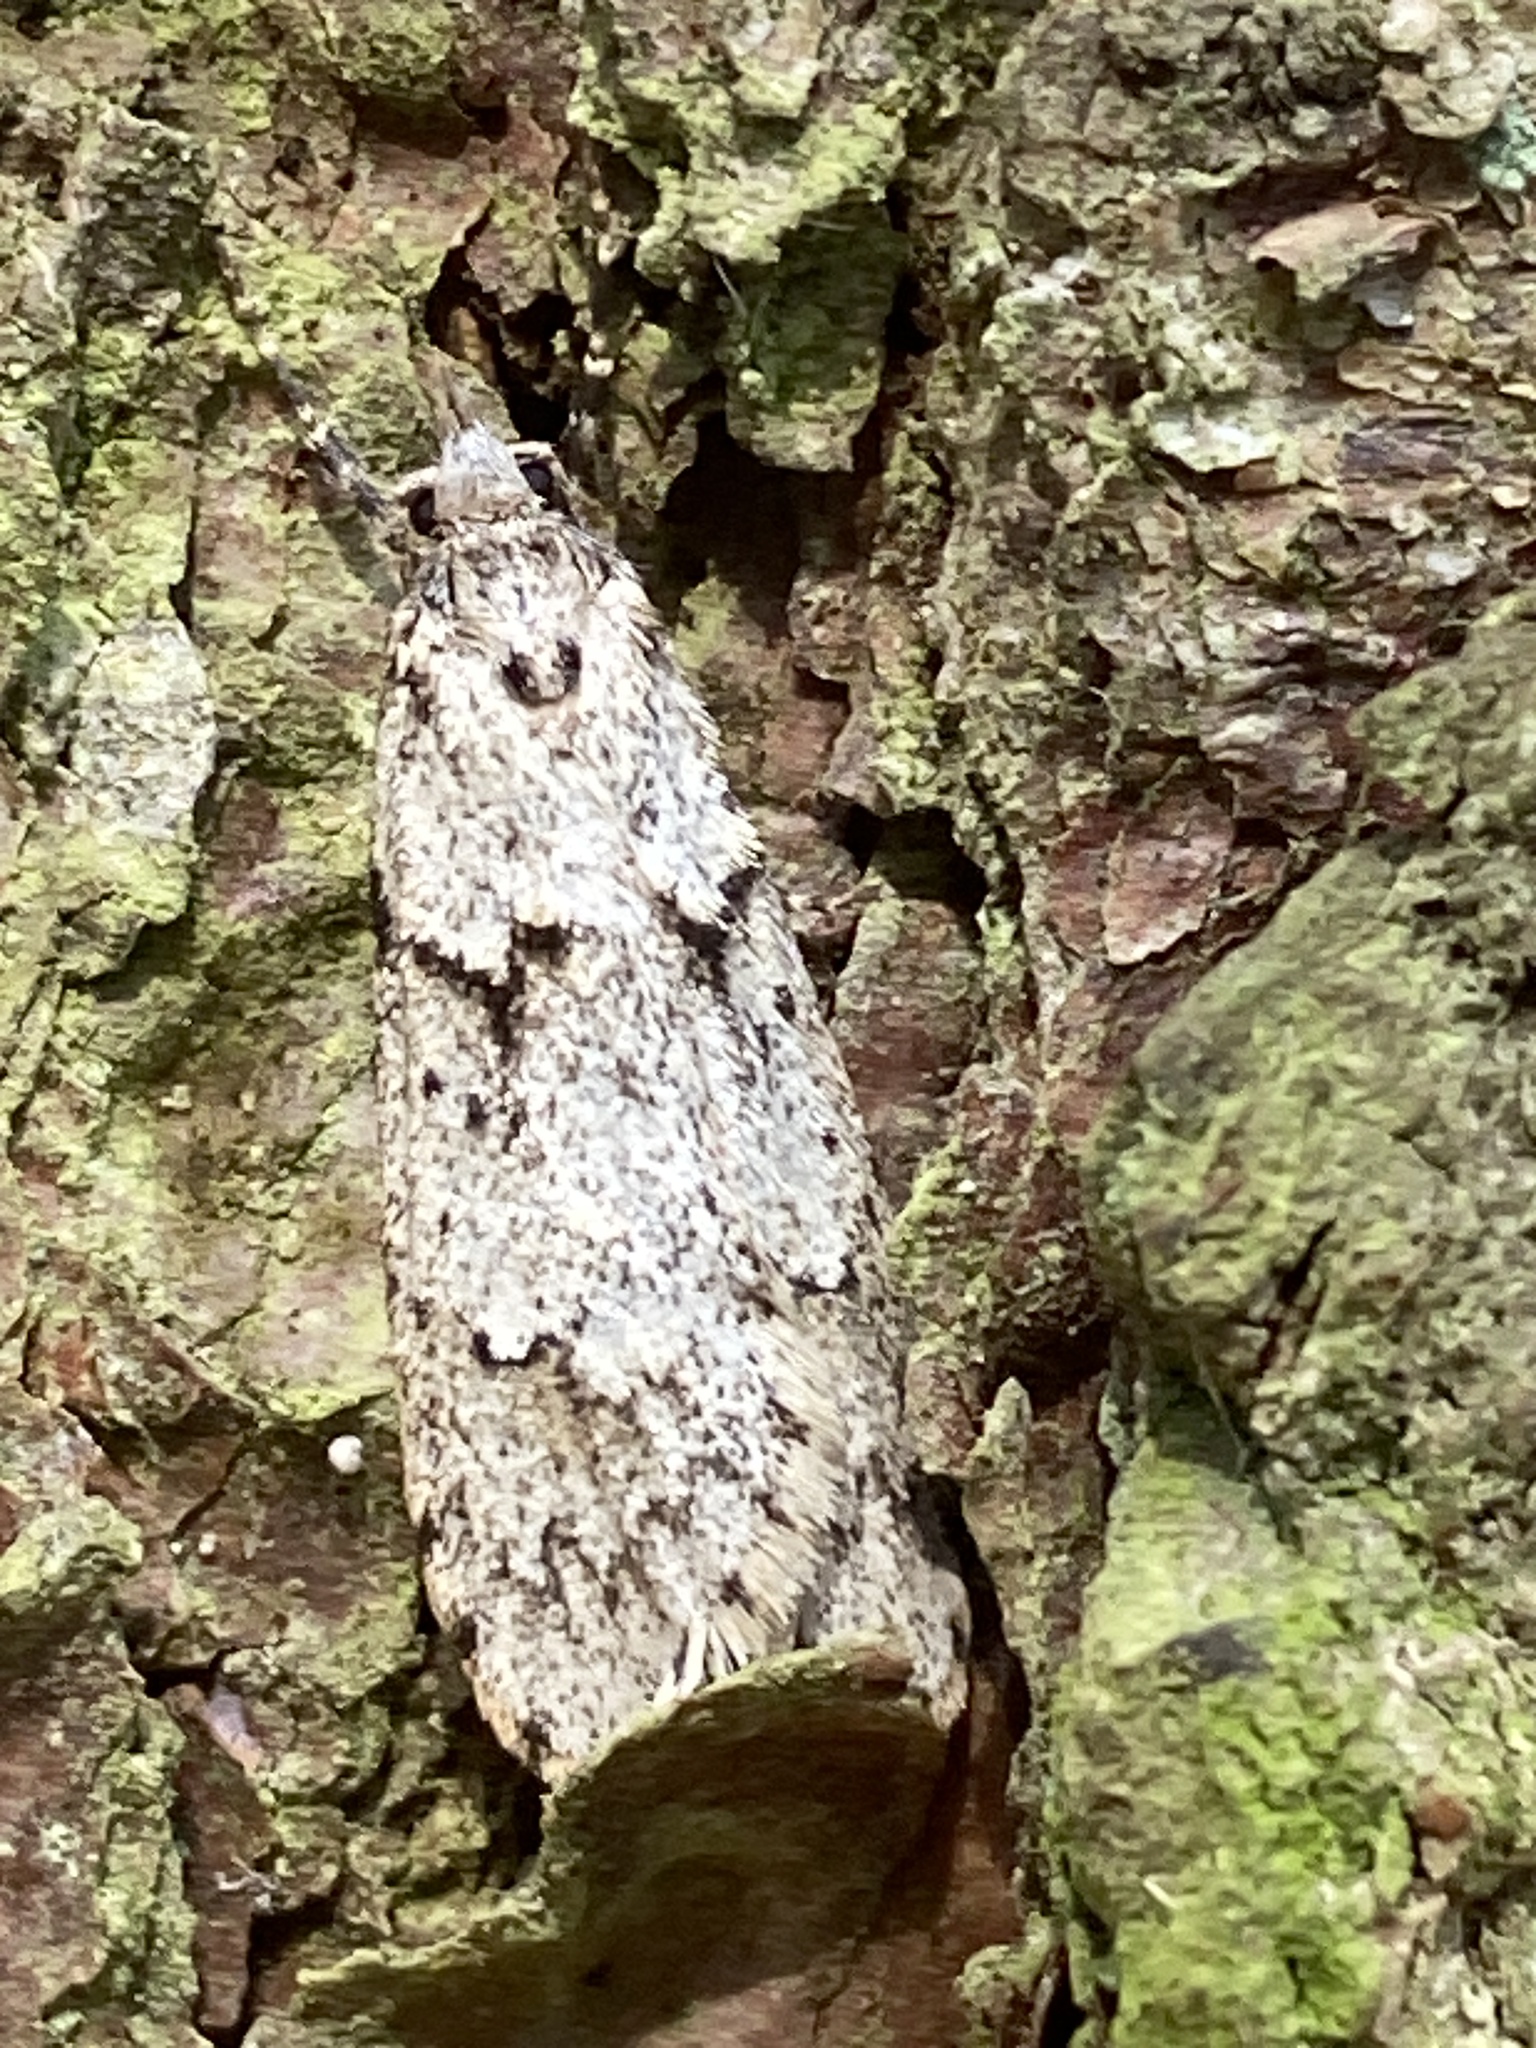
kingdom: Animalia
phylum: Arthropoda
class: Insecta
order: Lepidoptera
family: Lypusidae
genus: Diurnea
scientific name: Diurnea fagella
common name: March tubic
